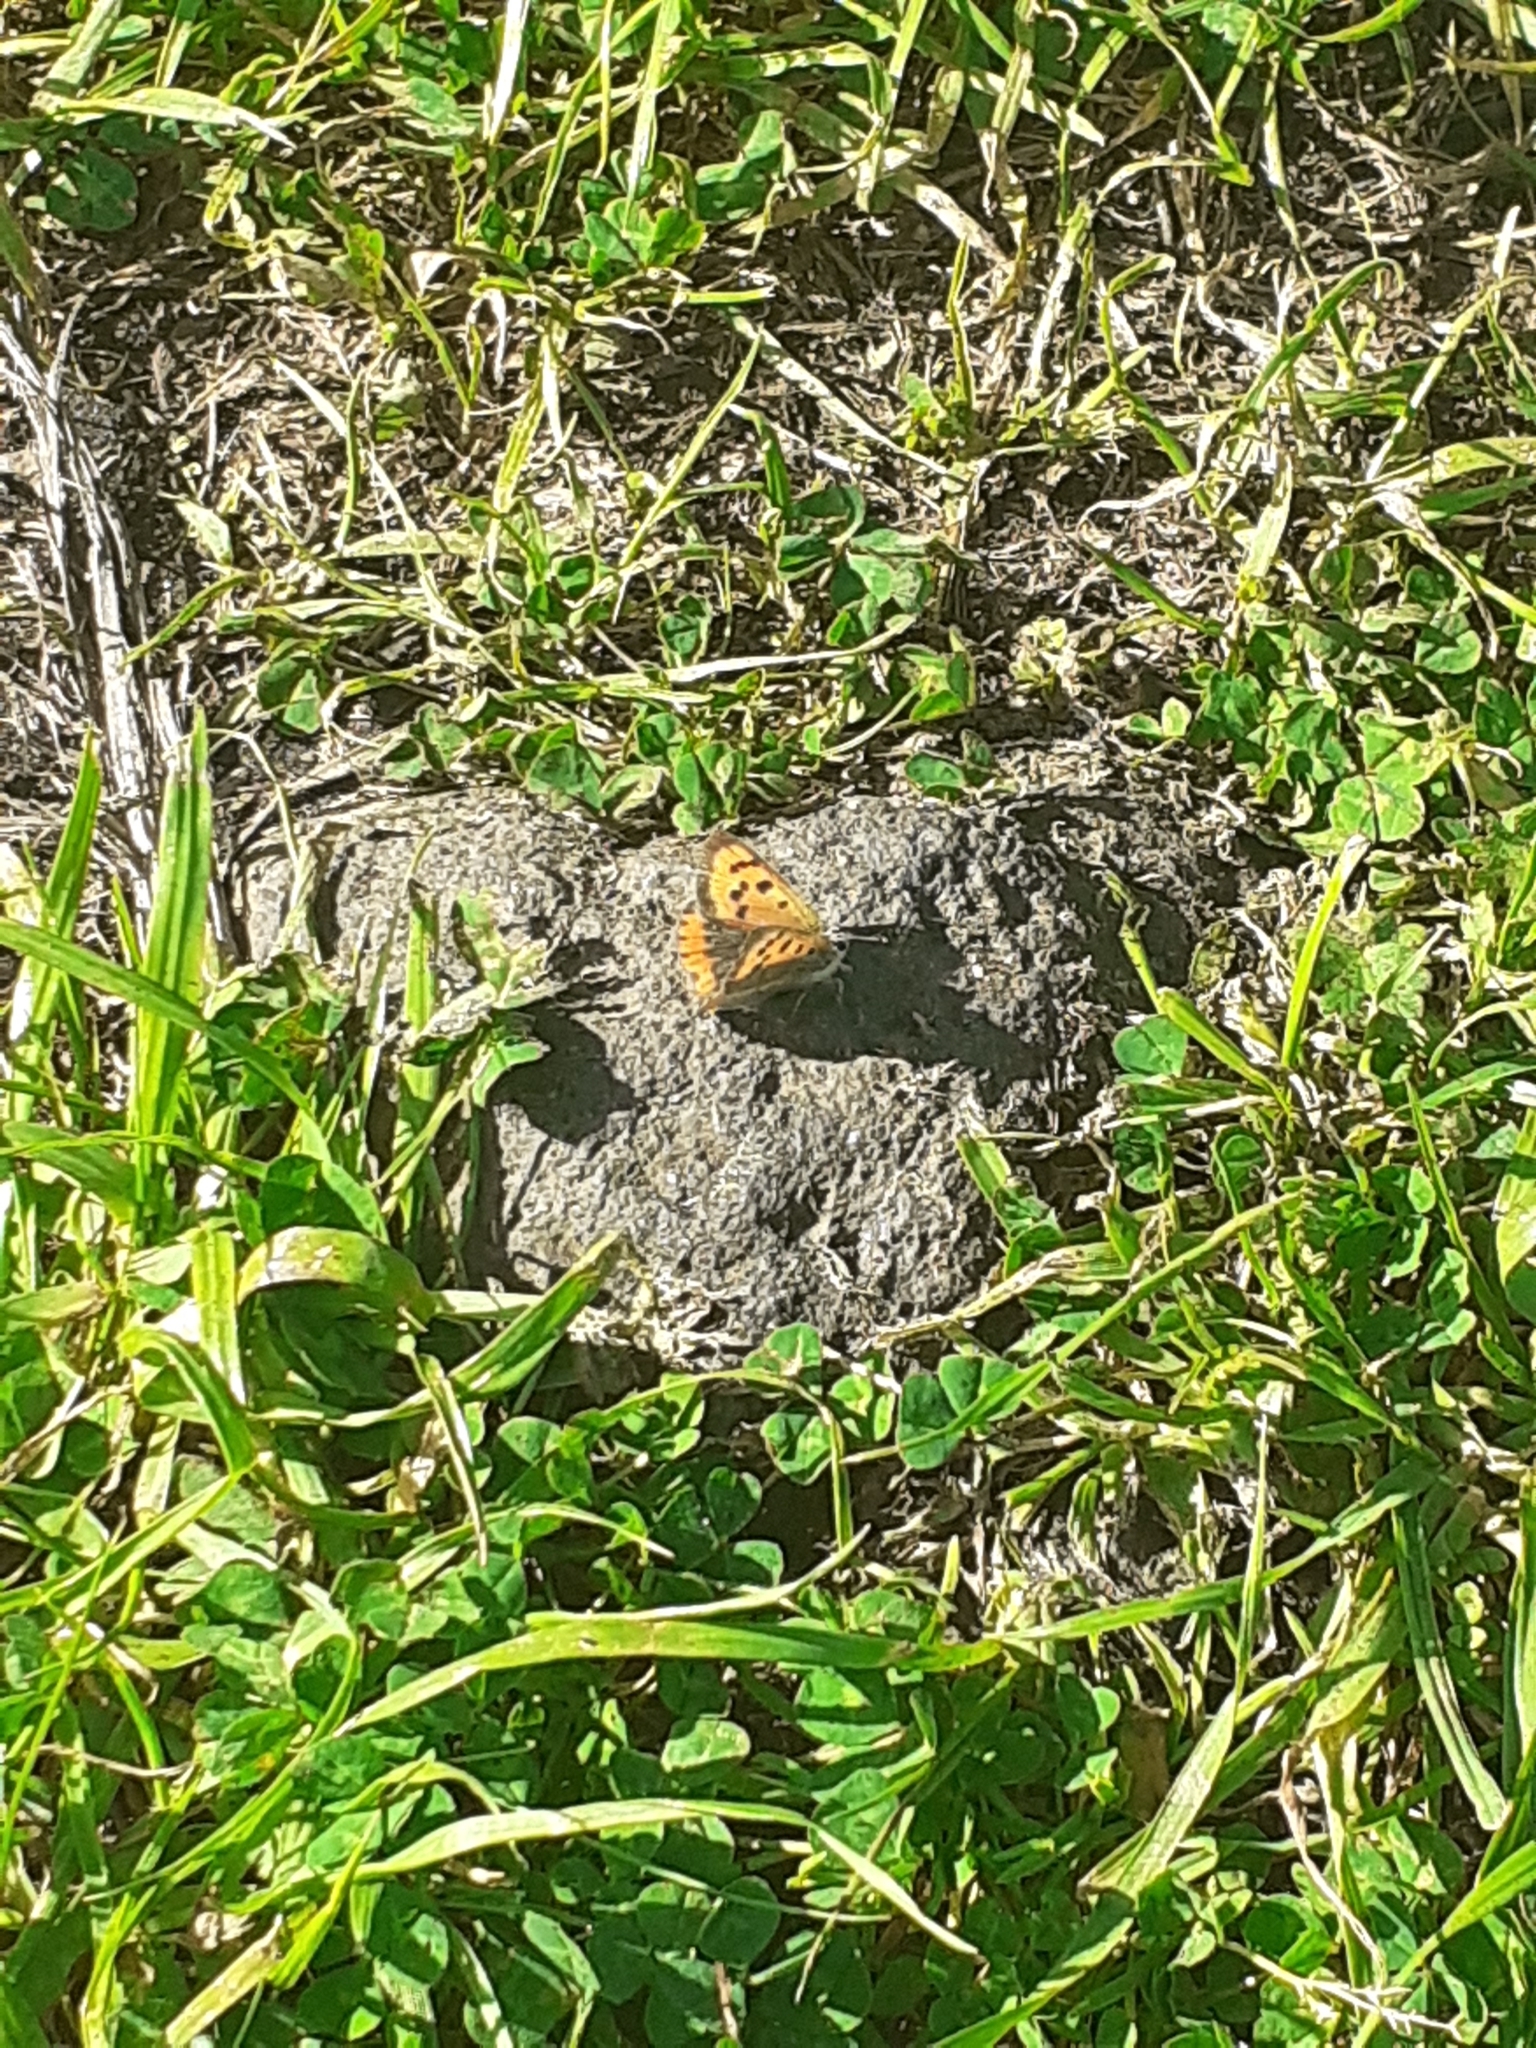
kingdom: Animalia
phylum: Arthropoda
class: Insecta
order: Lepidoptera
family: Lycaenidae
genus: Lycaena
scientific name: Lycaena phlaeas
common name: Small copper
